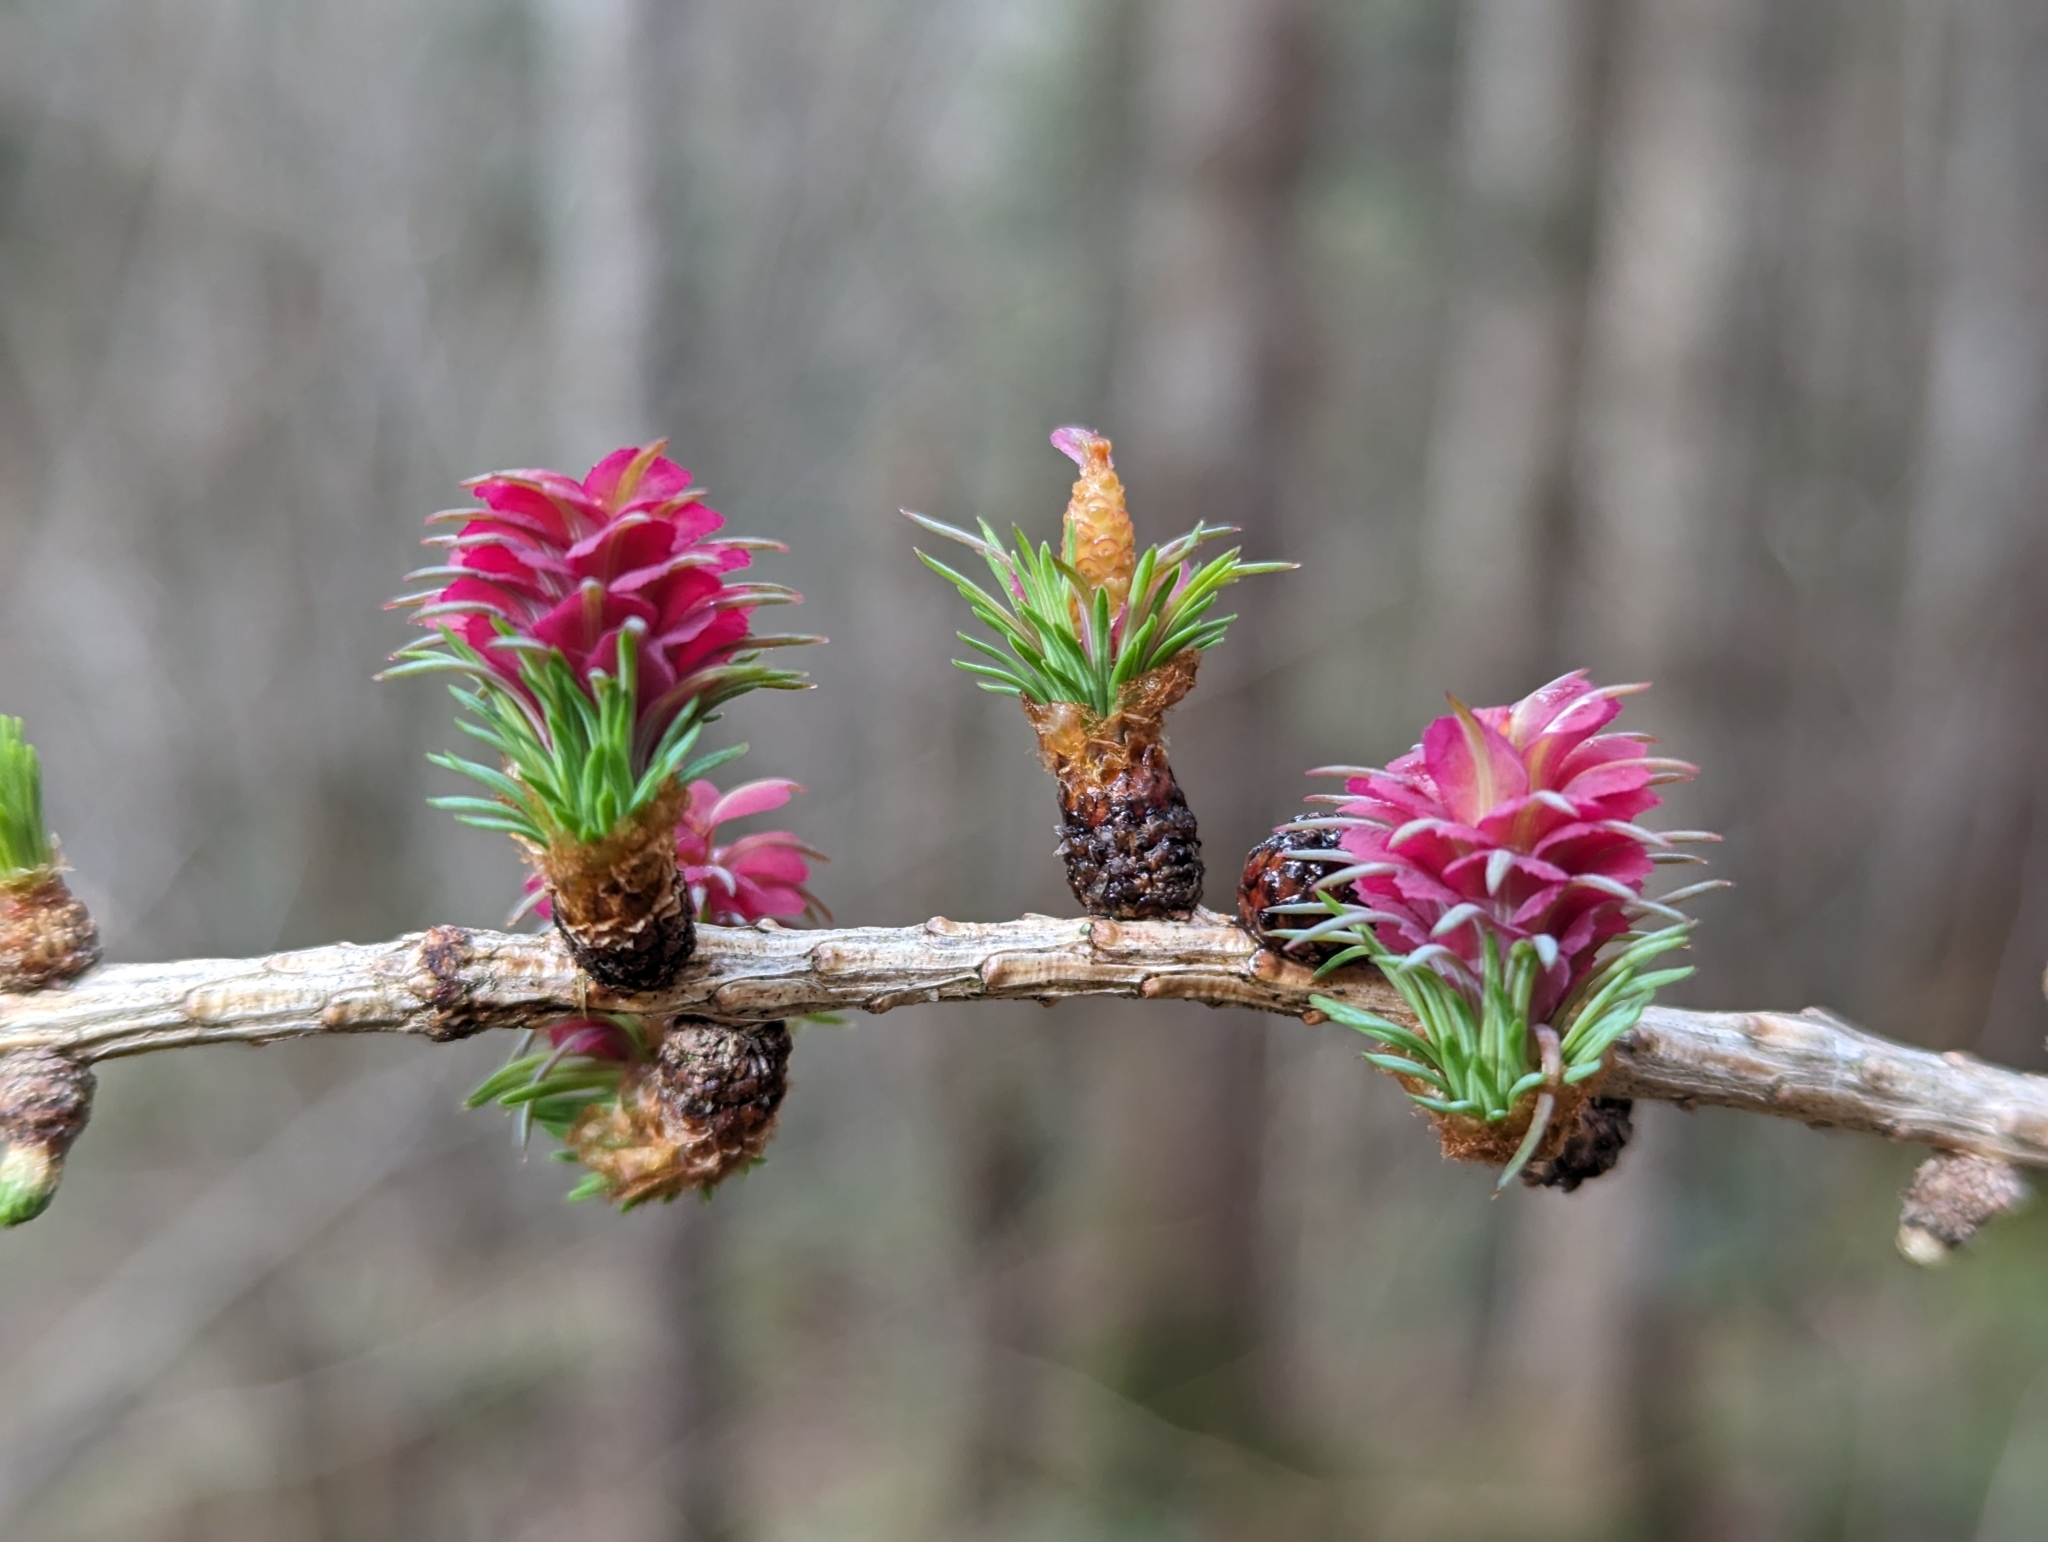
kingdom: Plantae
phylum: Tracheophyta
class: Pinopsida
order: Pinales
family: Pinaceae
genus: Larix
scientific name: Larix decidua
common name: European larch
